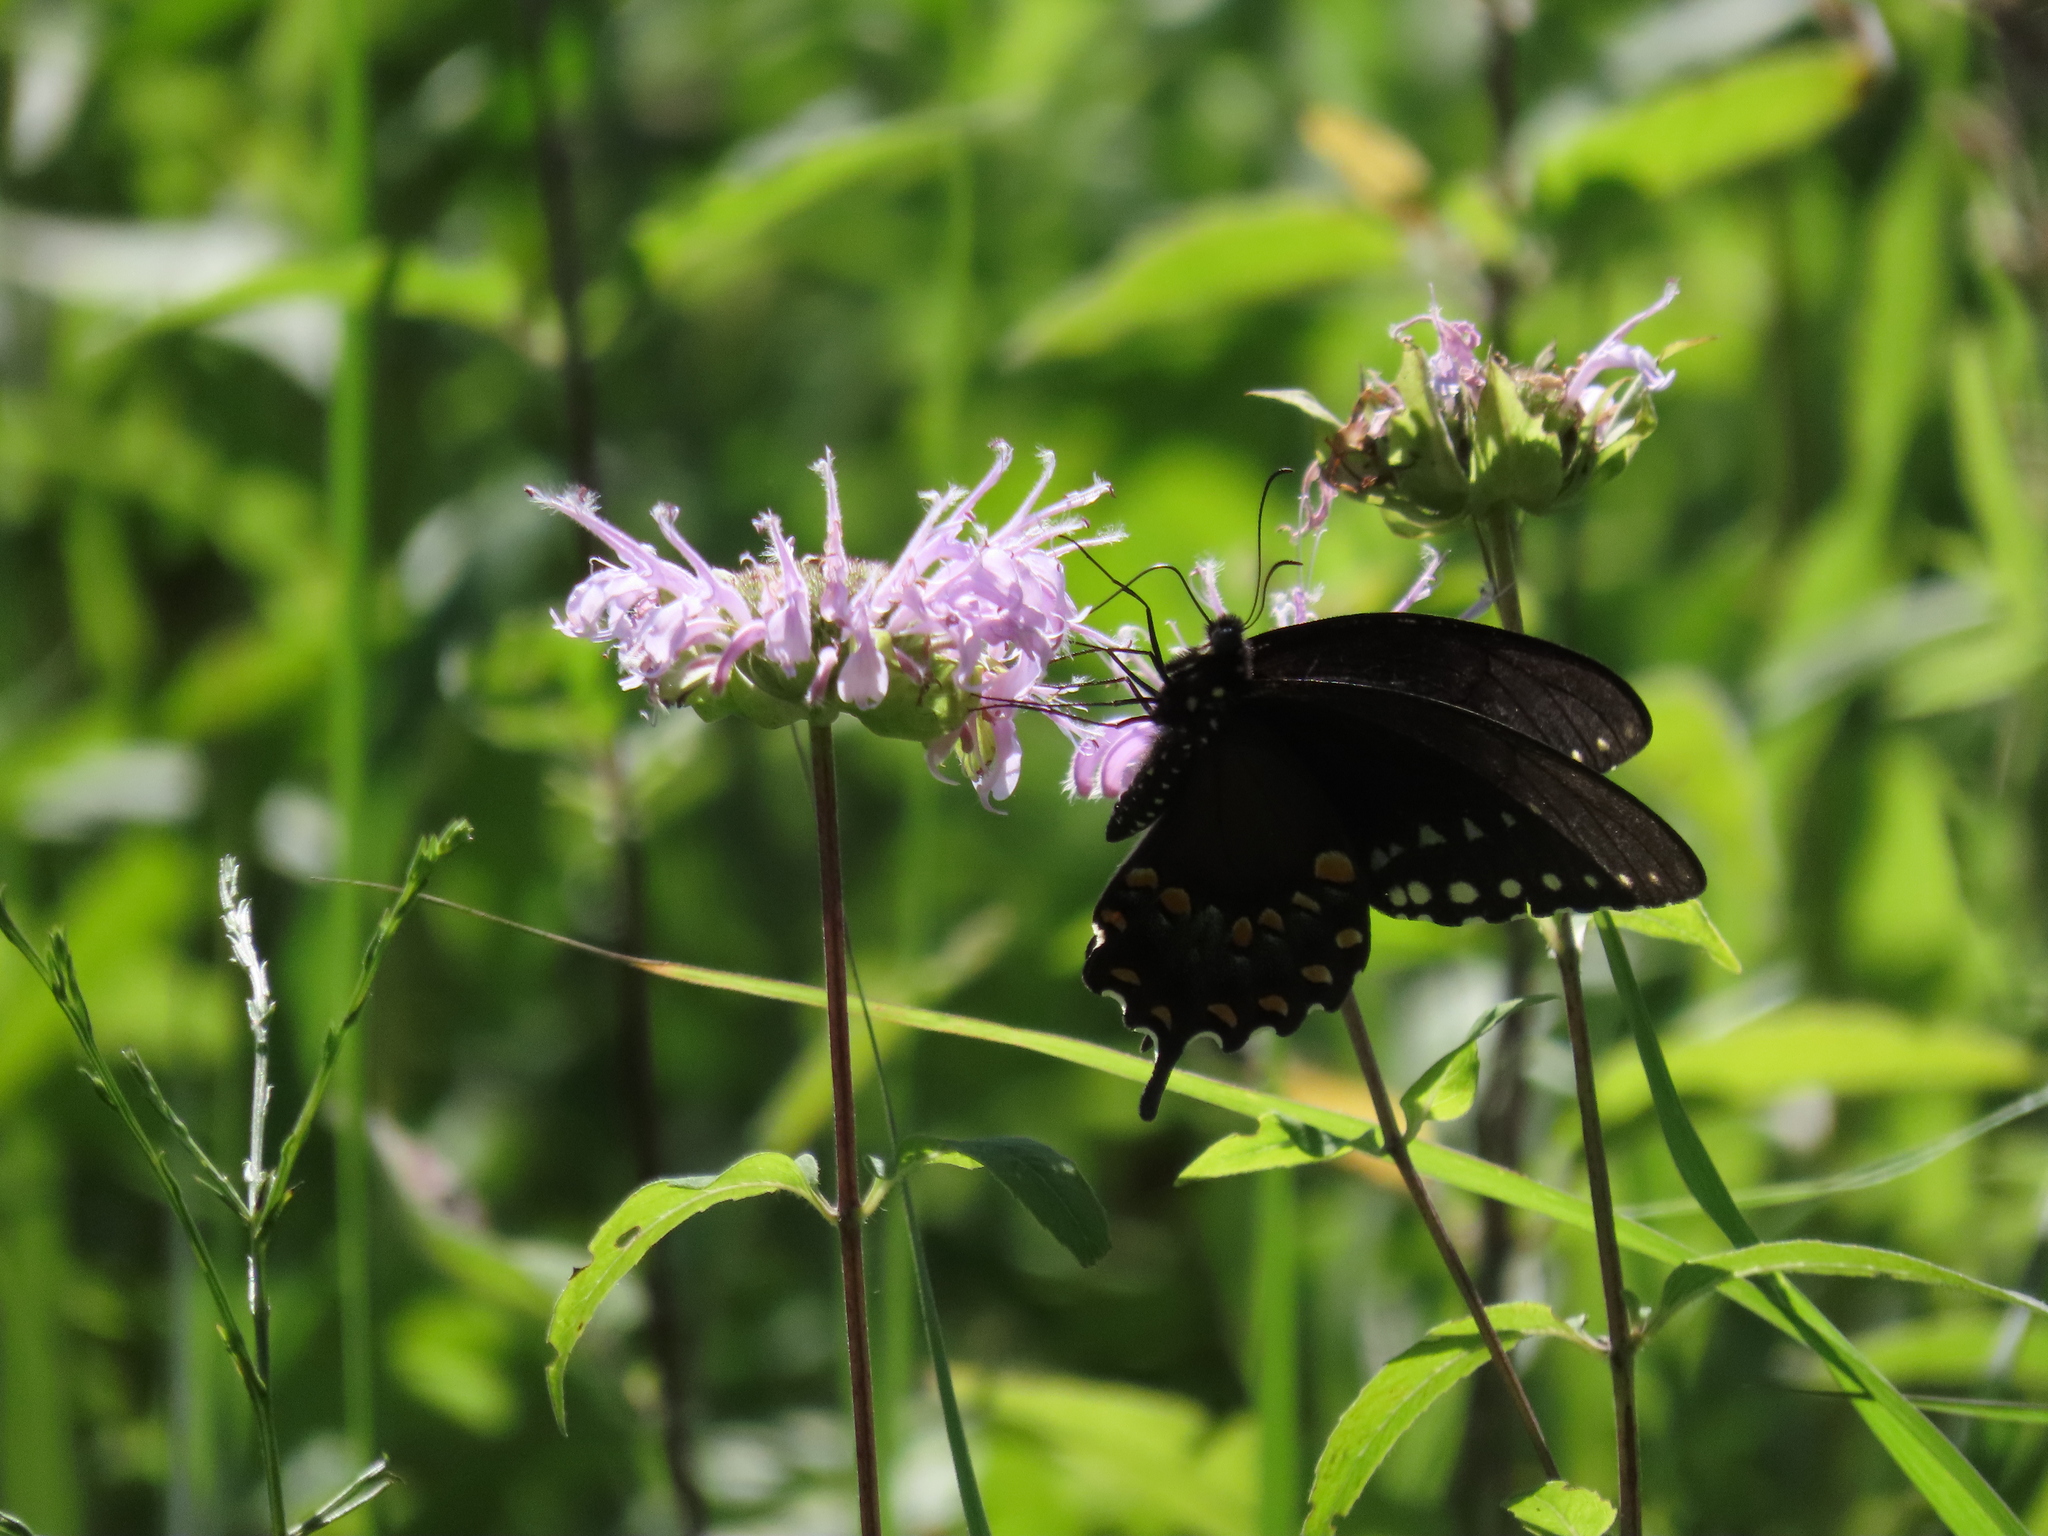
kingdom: Animalia
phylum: Arthropoda
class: Insecta
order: Lepidoptera
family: Papilionidae
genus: Papilio
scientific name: Papilio troilus
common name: Spicebush swallowtail
